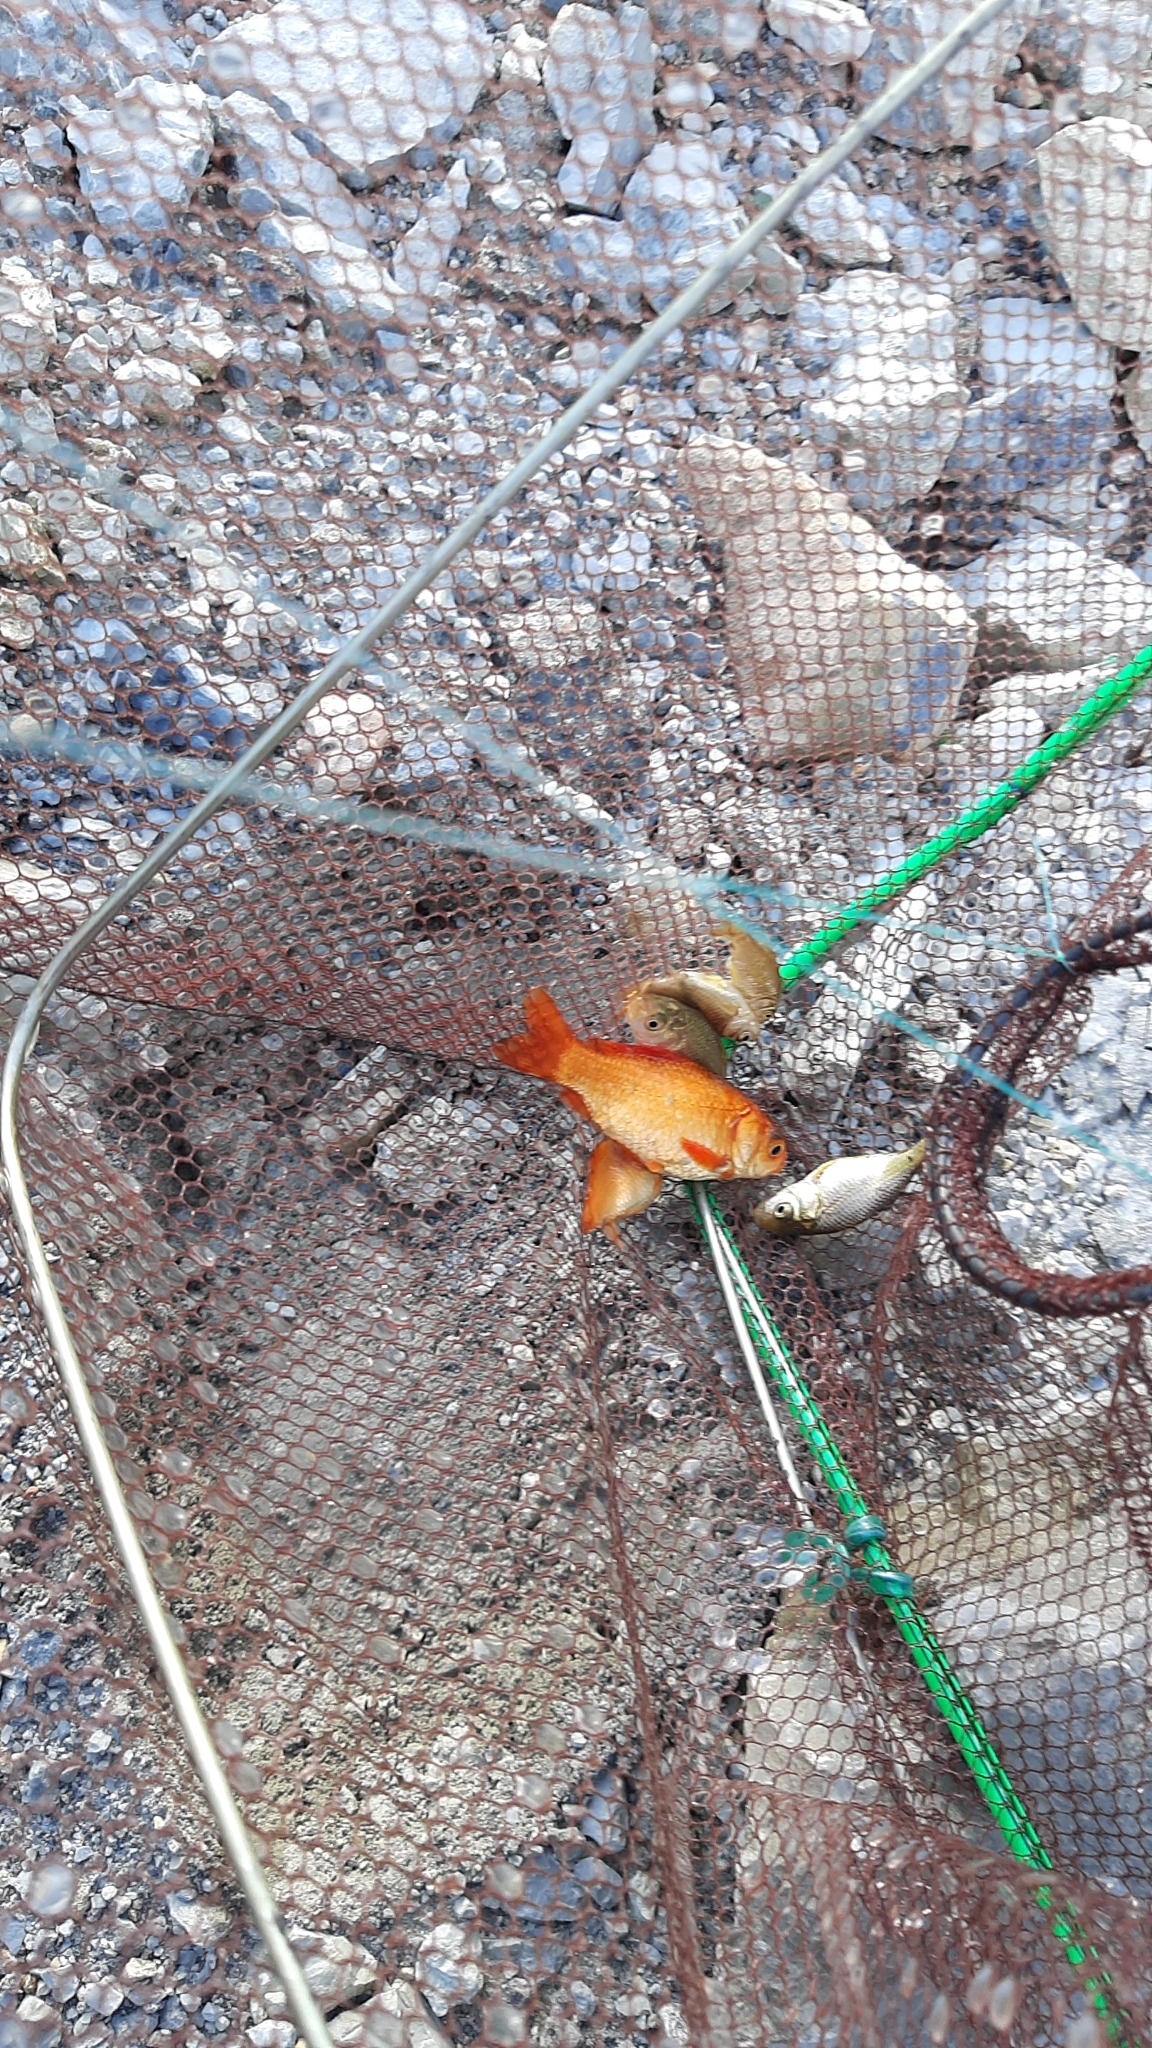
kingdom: Animalia
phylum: Chordata
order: Cypriniformes
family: Cyprinidae
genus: Carassius
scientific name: Carassius auratus
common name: Goldfish
